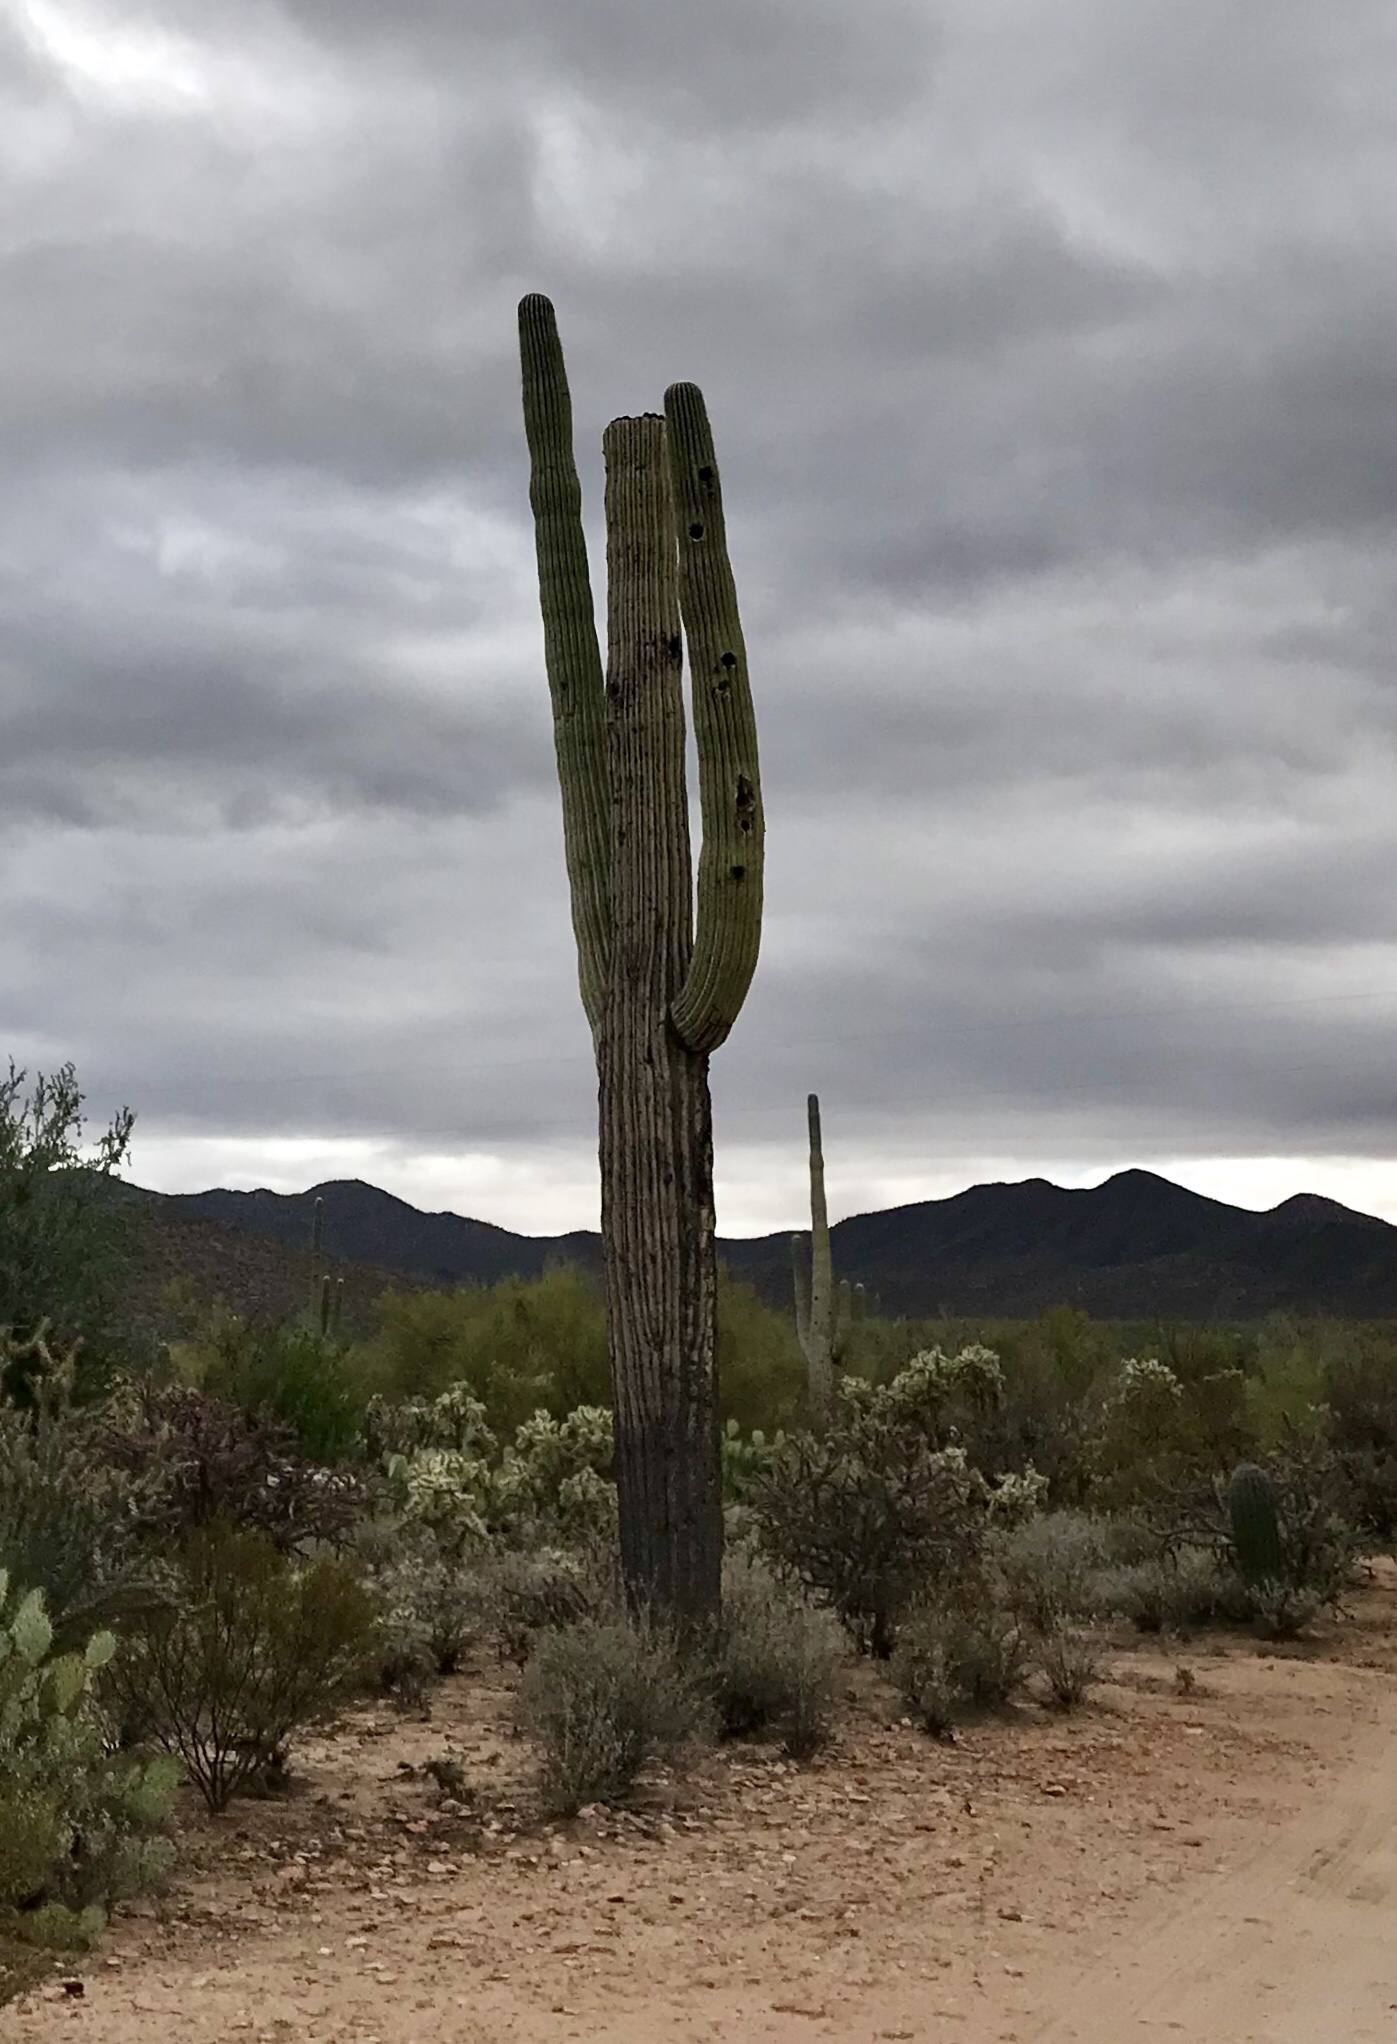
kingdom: Plantae
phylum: Tracheophyta
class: Magnoliopsida
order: Caryophyllales
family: Cactaceae
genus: Carnegiea
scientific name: Carnegiea gigantea
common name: Saguaro
